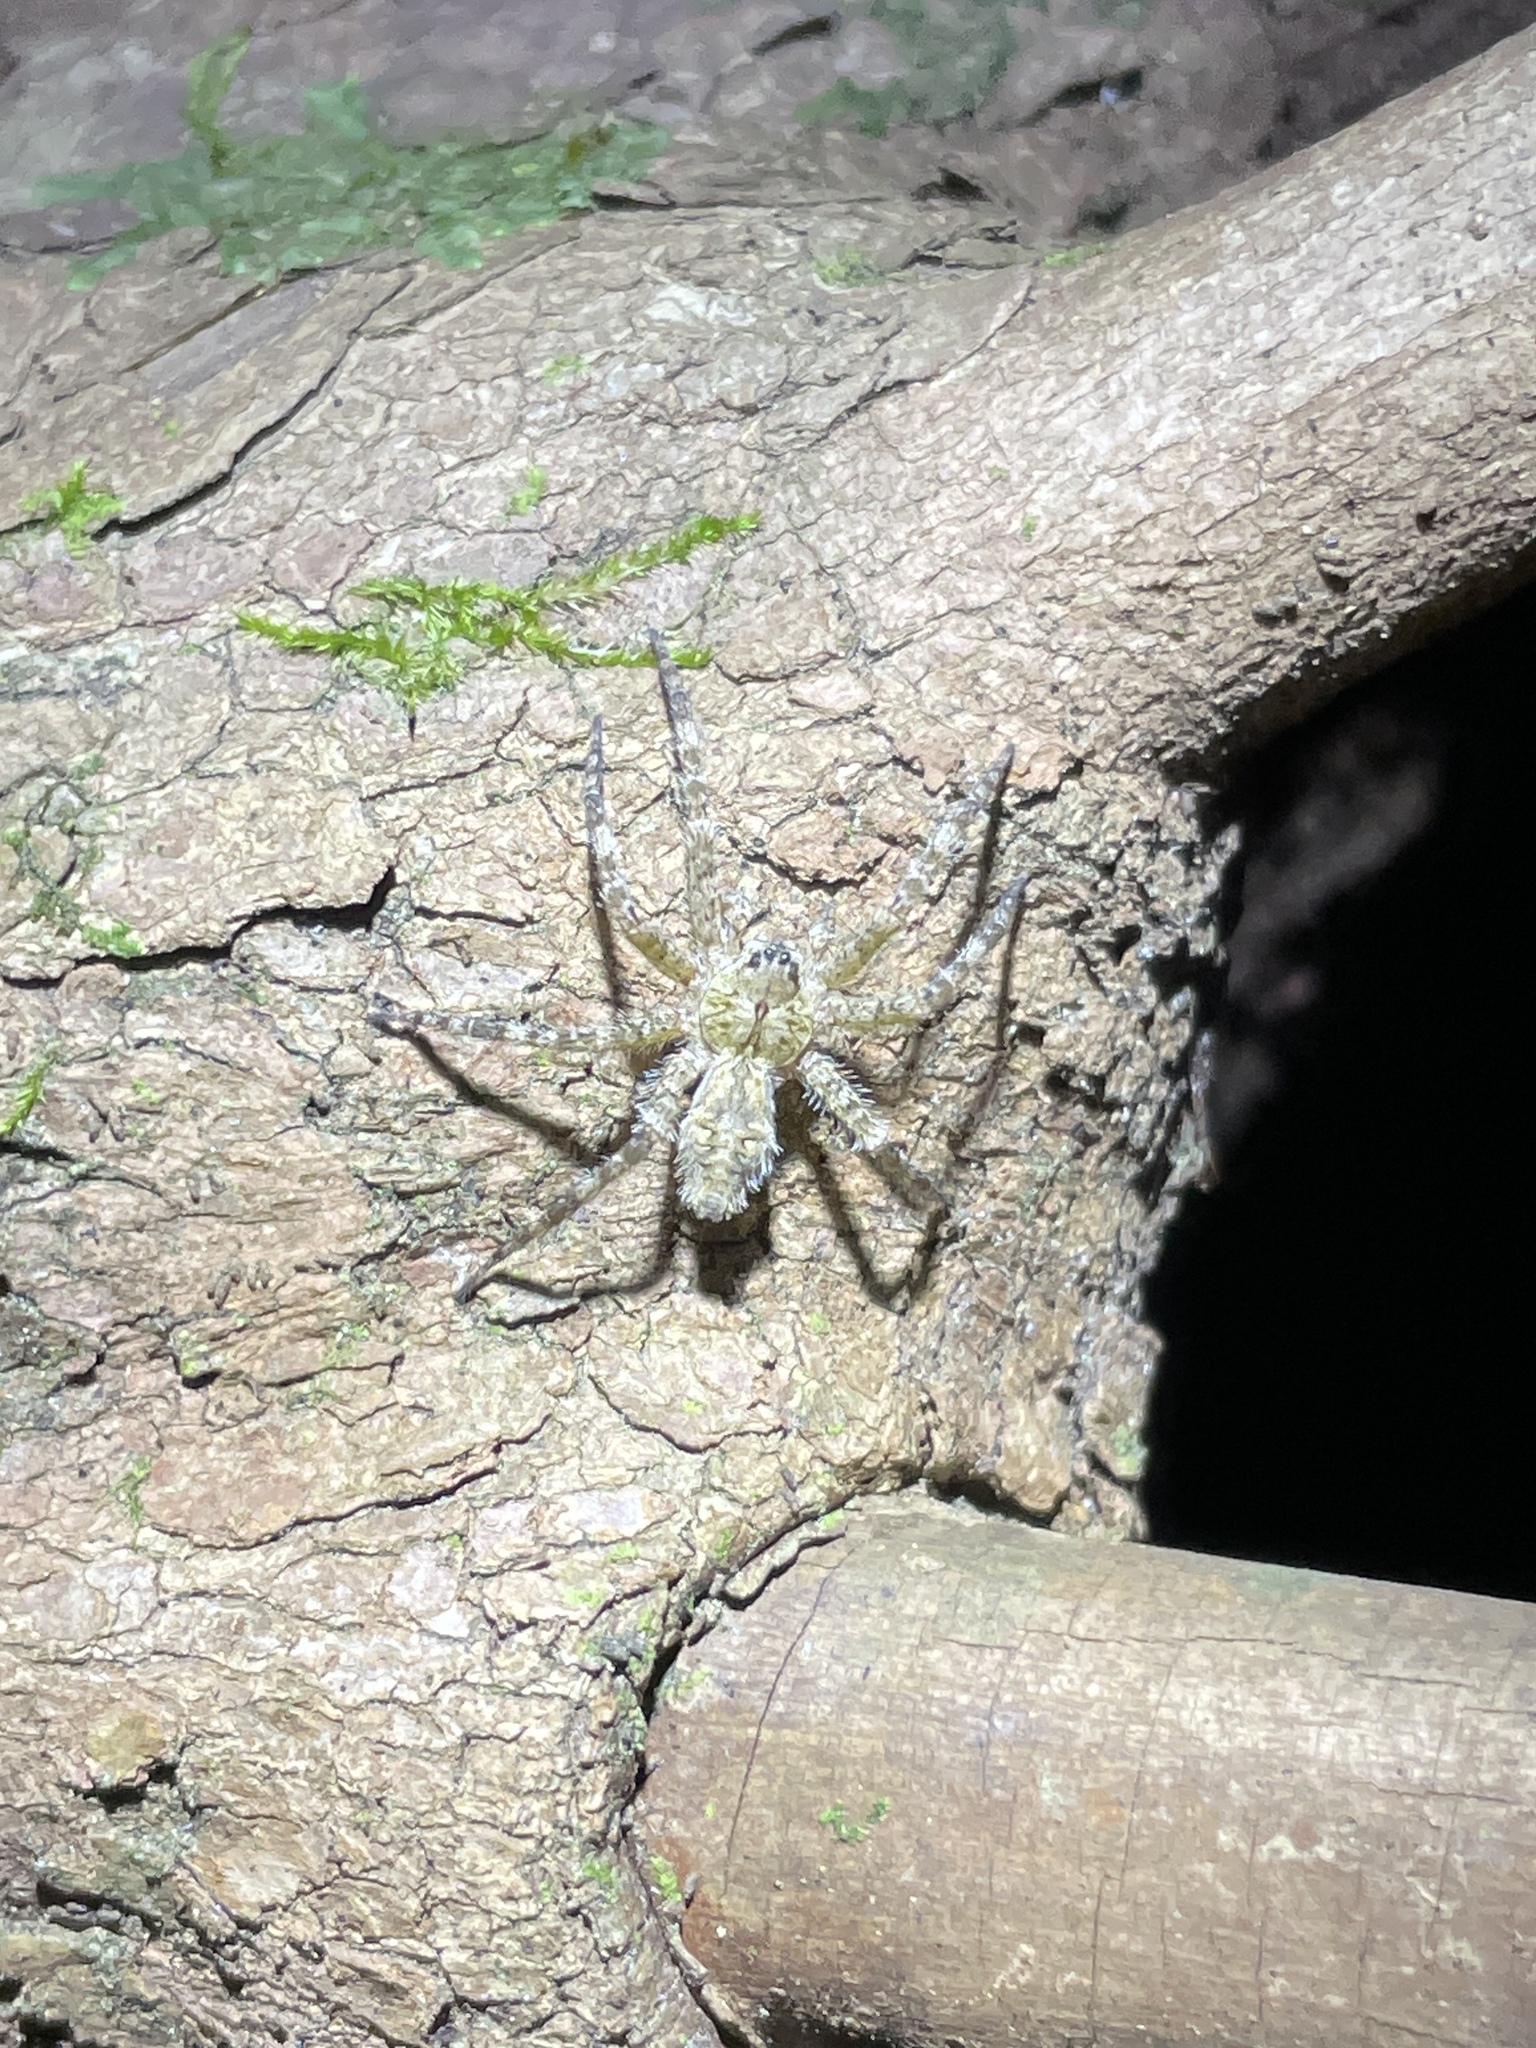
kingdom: Animalia
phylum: Arthropoda
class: Arachnida
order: Araneae
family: Pisauridae
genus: Dolomedes
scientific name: Dolomedes albineus
